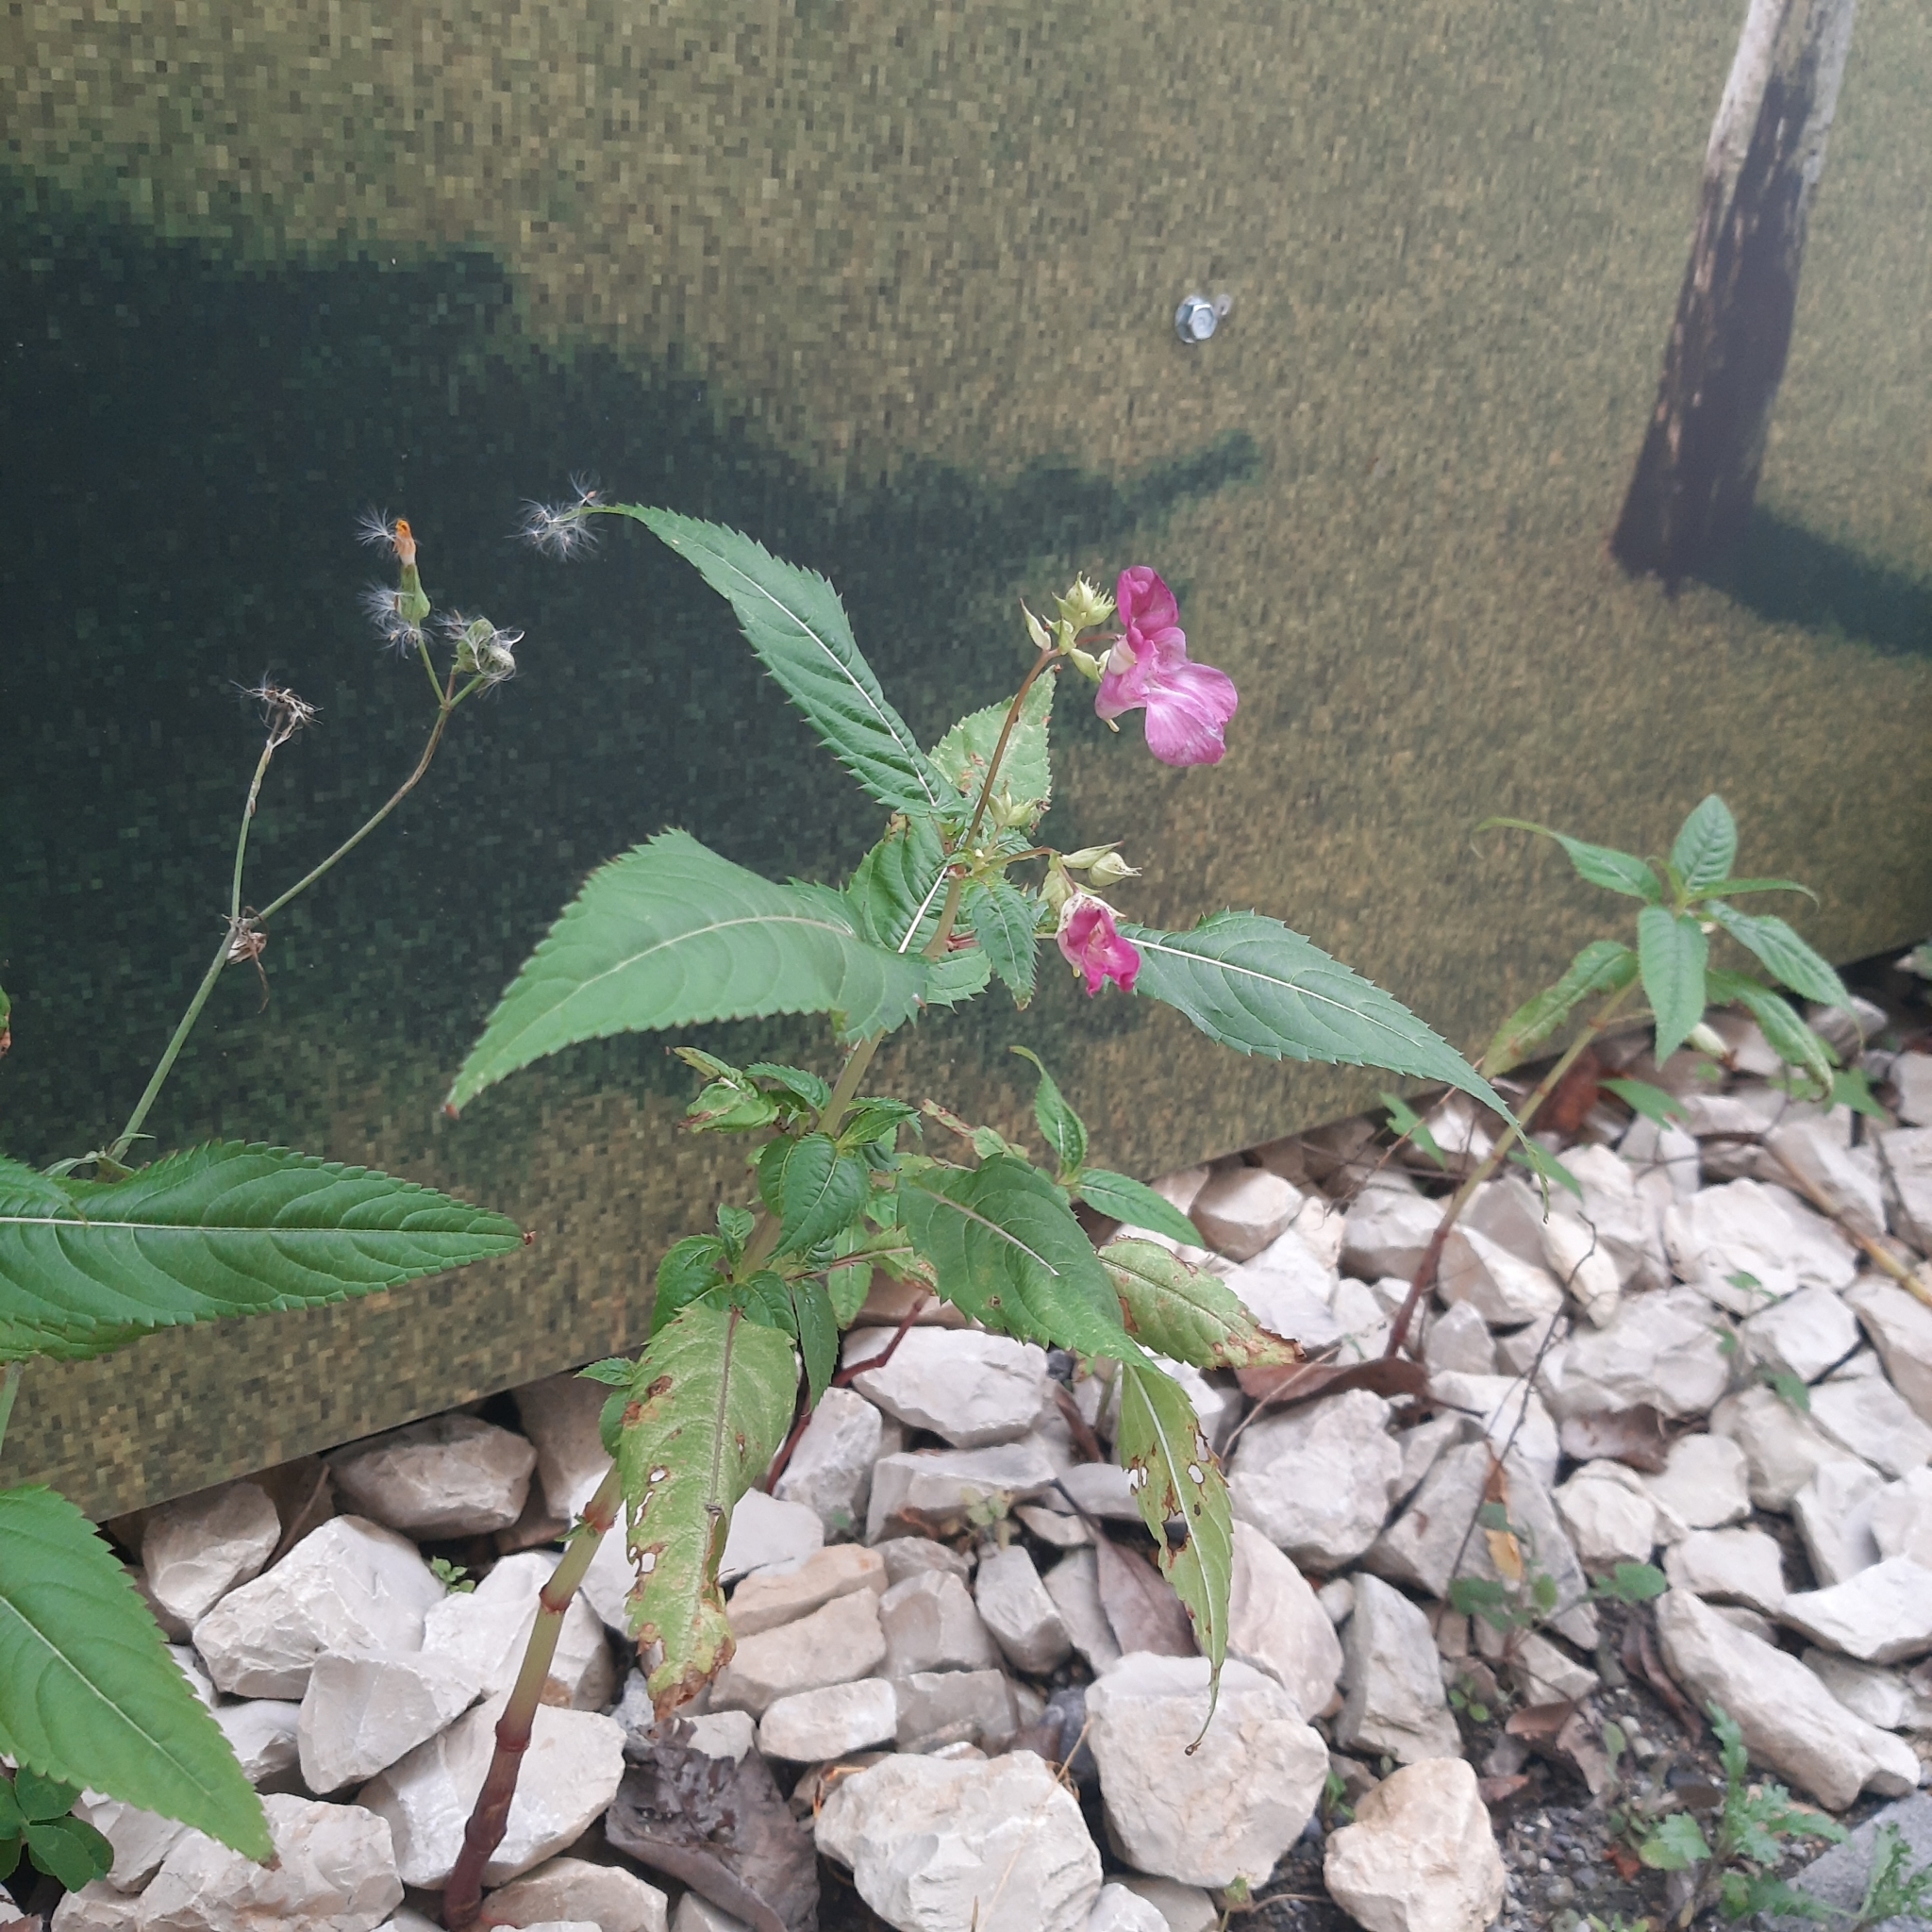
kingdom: Plantae
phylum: Tracheophyta
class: Magnoliopsida
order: Ericales
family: Balsaminaceae
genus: Impatiens
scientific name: Impatiens glandulifera
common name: Himalayan balsam
